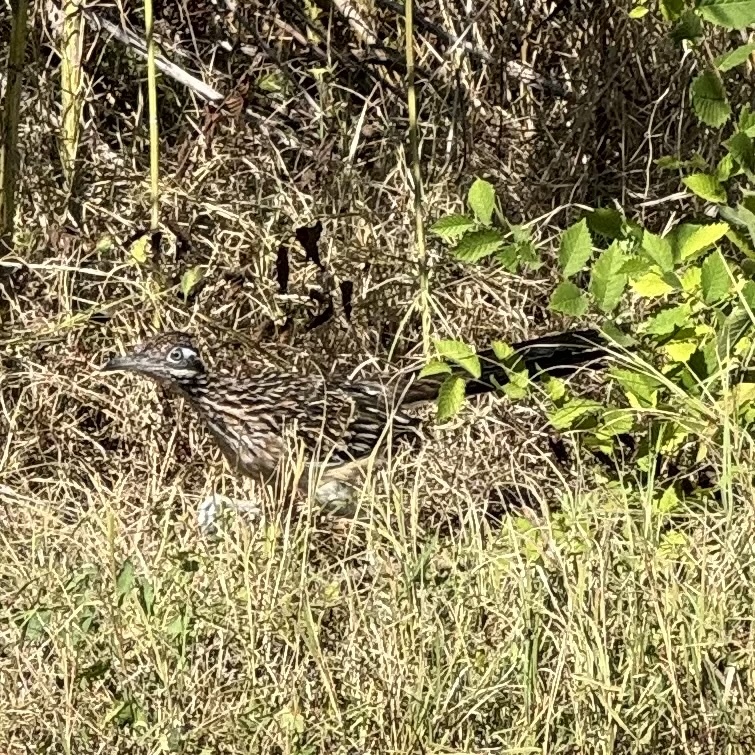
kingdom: Animalia
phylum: Chordata
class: Aves
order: Cuculiformes
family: Cuculidae
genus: Geococcyx
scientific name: Geococcyx californianus
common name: Greater roadrunner
